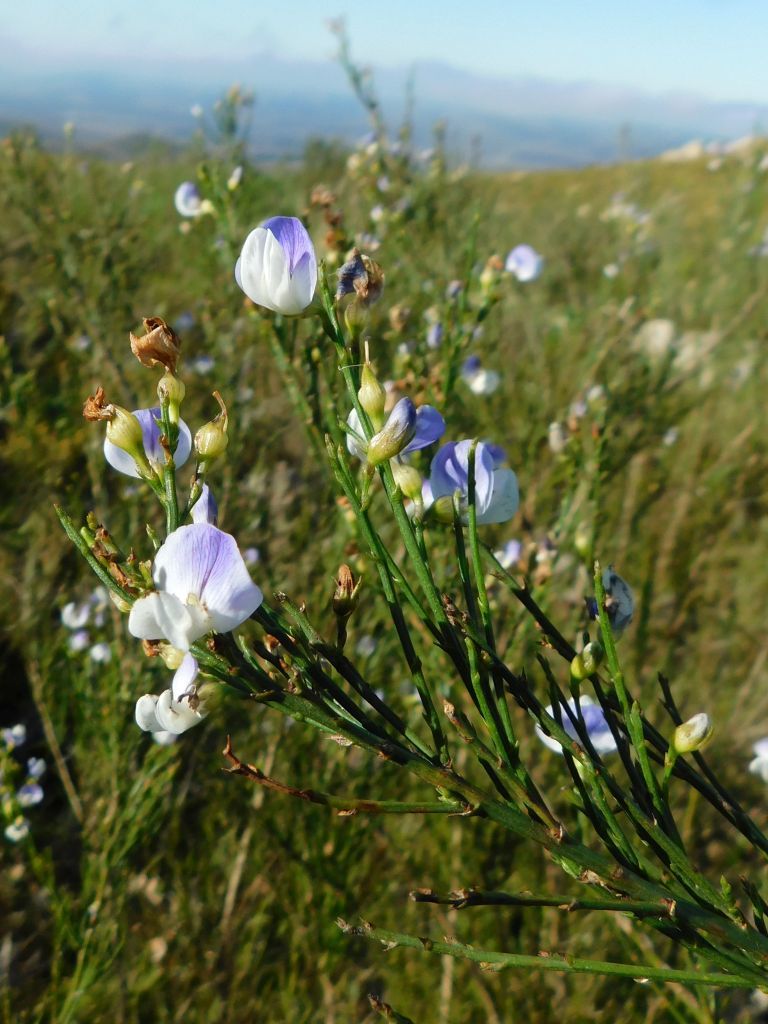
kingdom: Plantae
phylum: Tracheophyta
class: Magnoliopsida
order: Fabales
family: Fabaceae
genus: Psoralea
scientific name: Psoralea usitata
